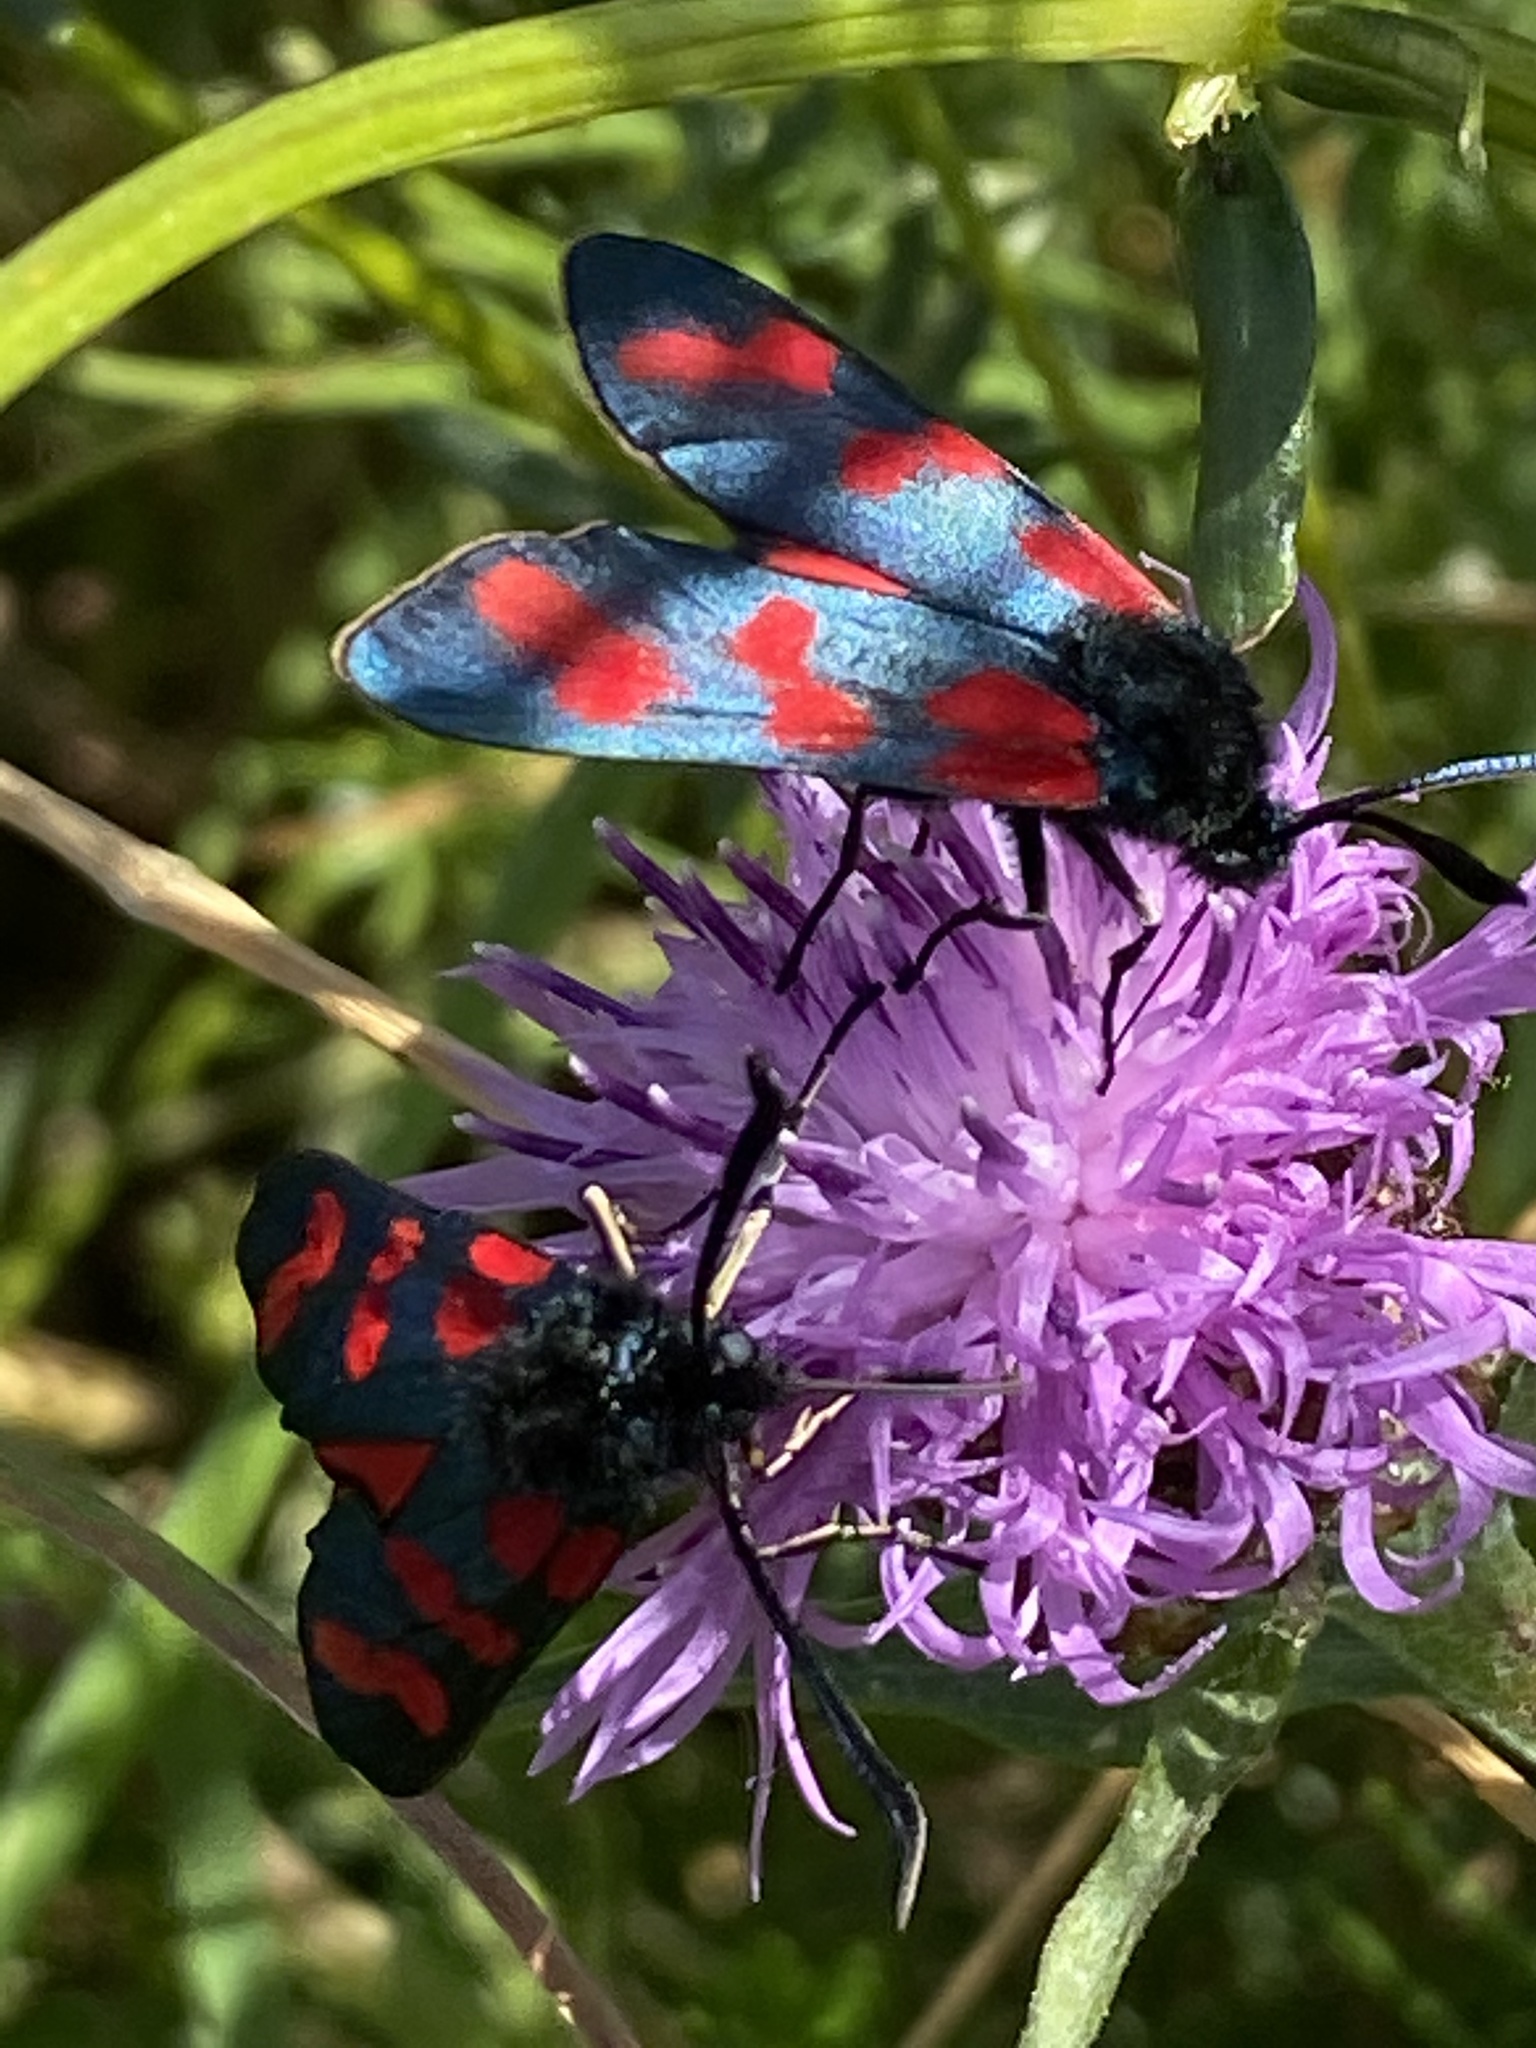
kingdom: Animalia
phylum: Arthropoda
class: Insecta
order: Lepidoptera
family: Zygaenidae
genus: Zygaena
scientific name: Zygaena filipendulae
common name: Six-spot burnet
